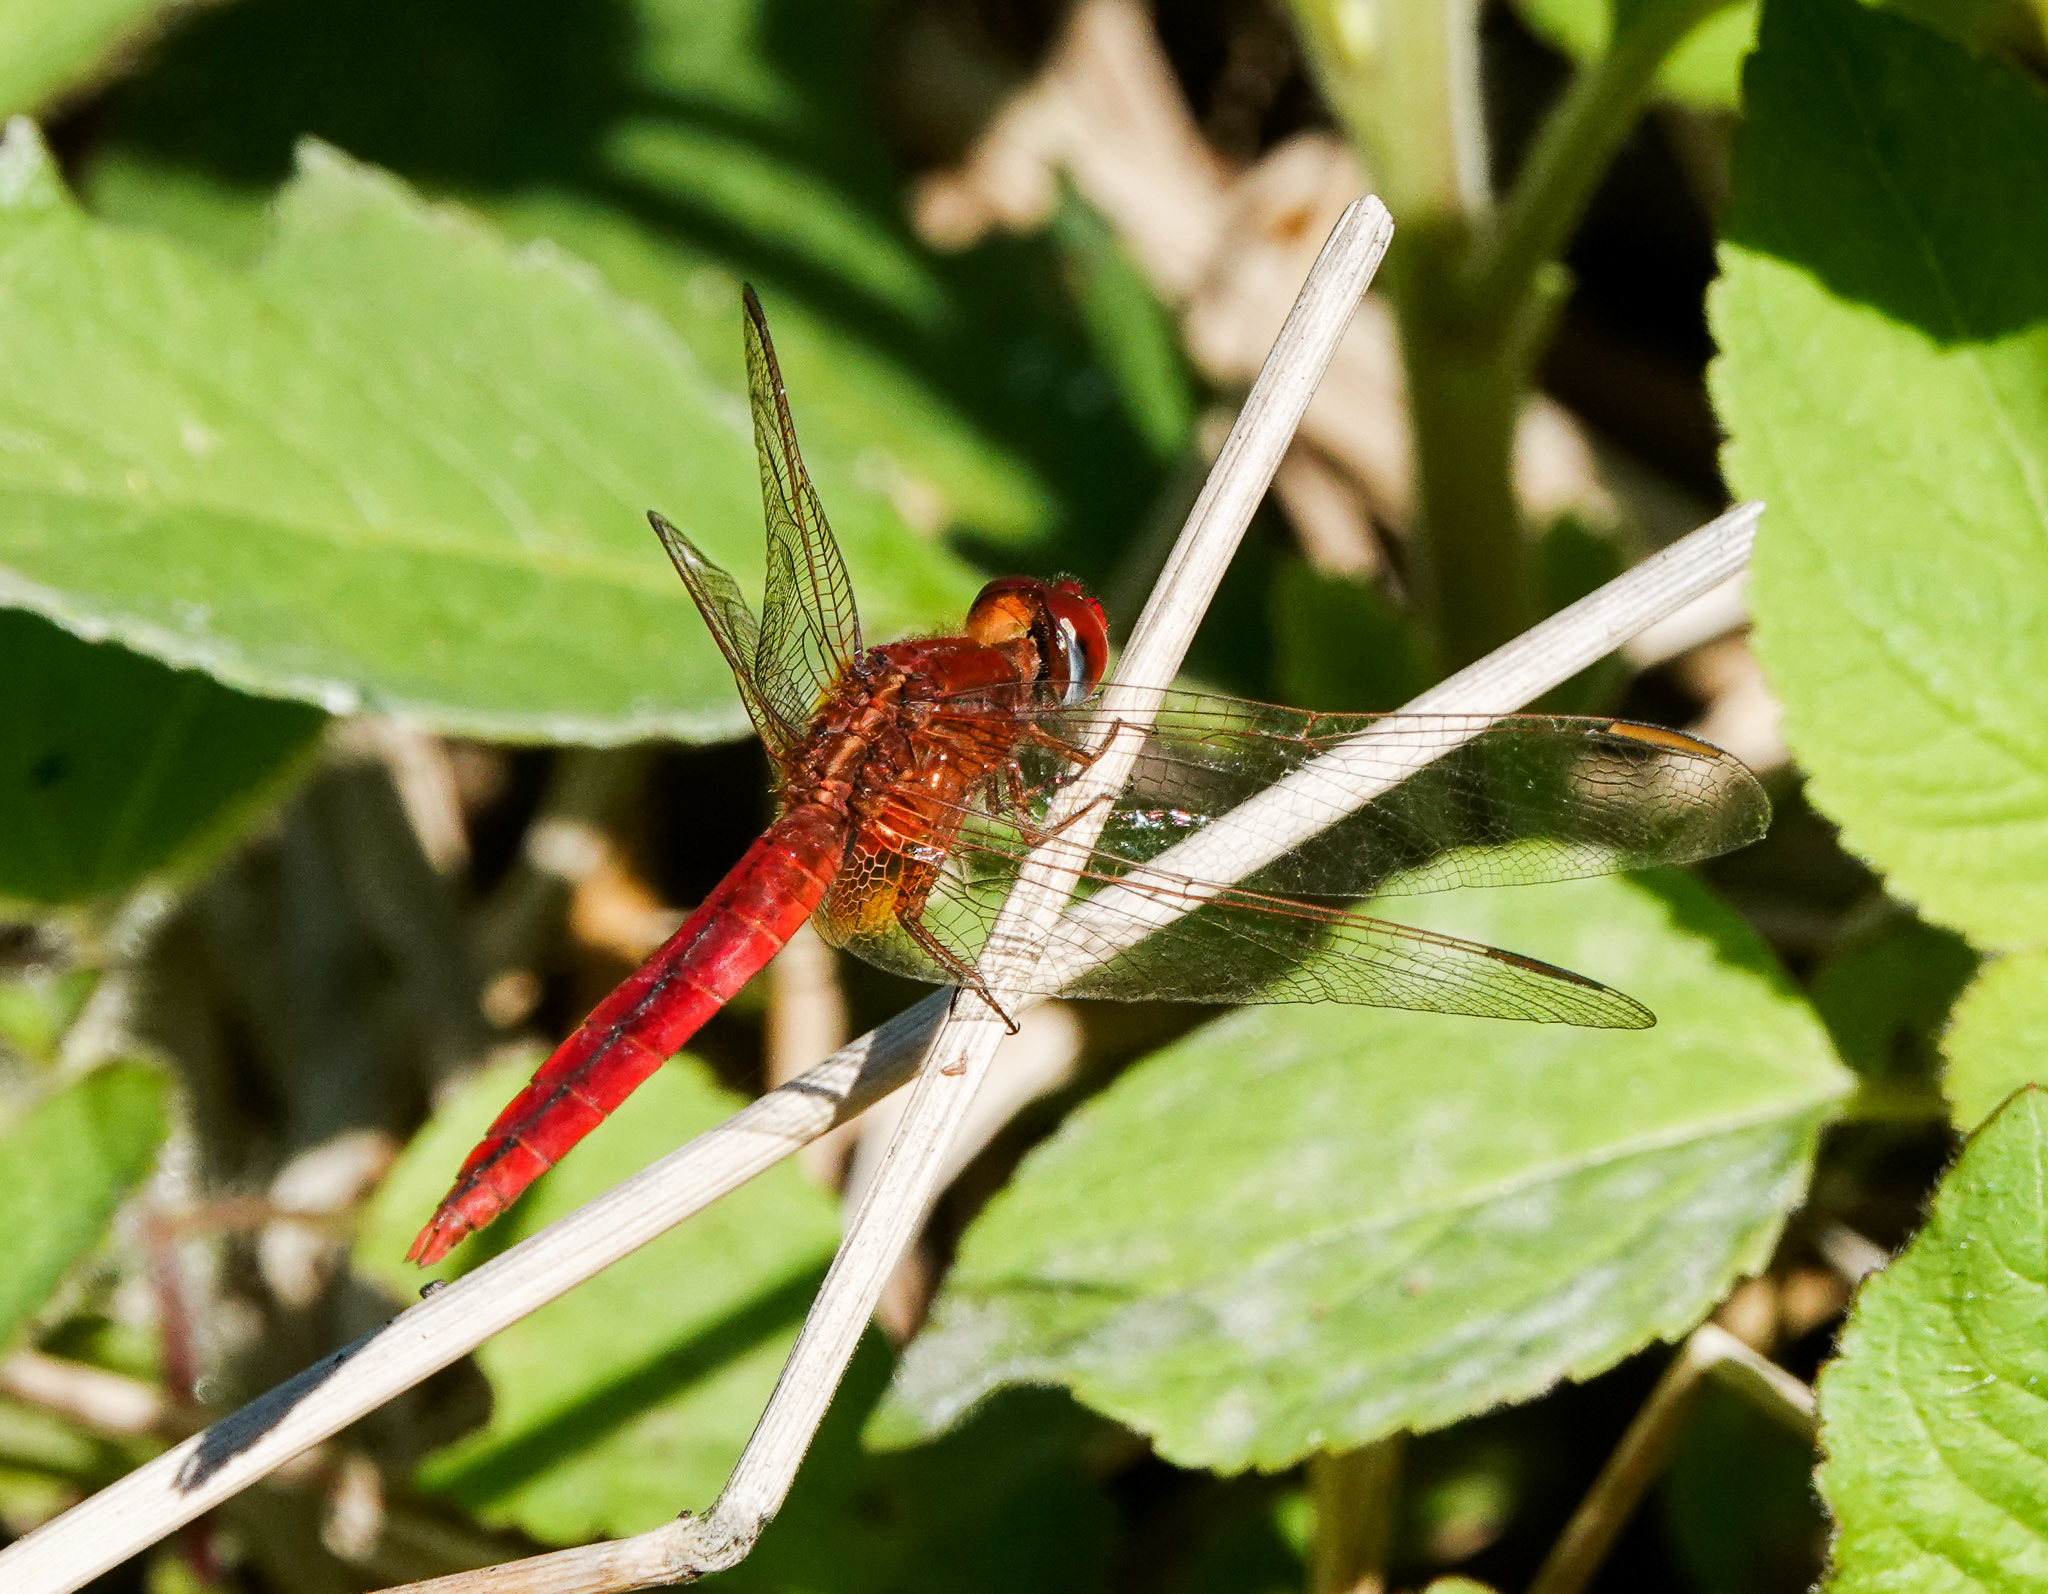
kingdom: Animalia
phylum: Arthropoda
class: Insecta
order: Odonata
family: Libellulidae
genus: Crocothemis
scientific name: Crocothemis servilia
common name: Scarlet skimmer
